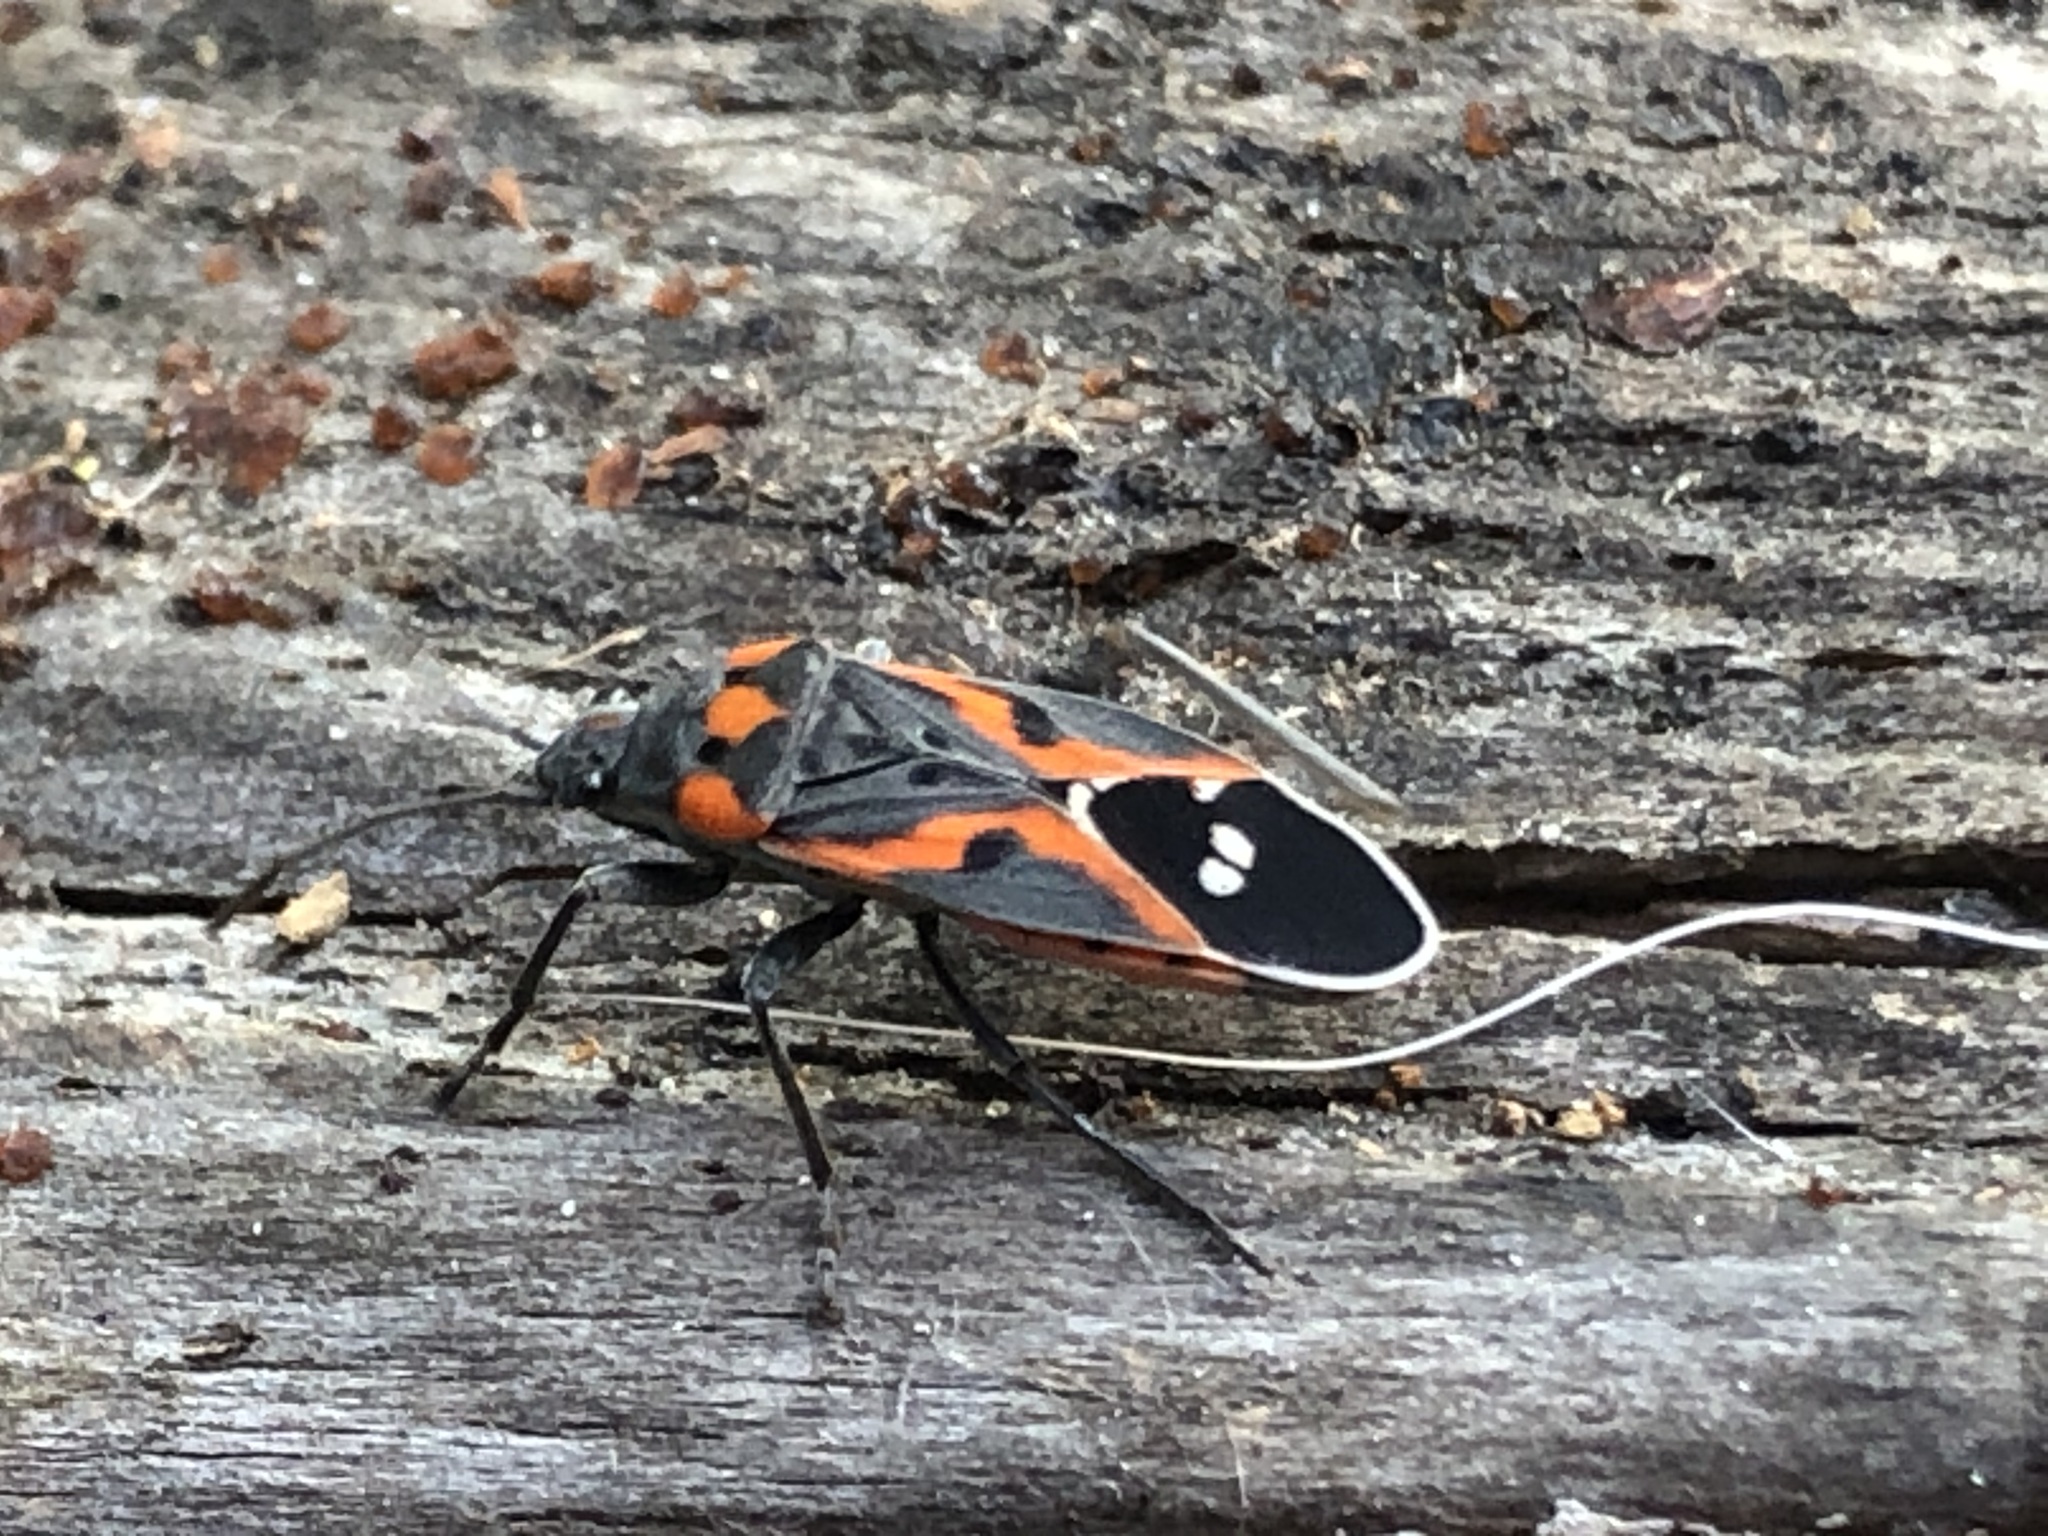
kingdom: Animalia
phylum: Arthropoda
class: Insecta
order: Hemiptera
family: Lygaeidae
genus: Lygaeus
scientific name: Lygaeus kalmii
